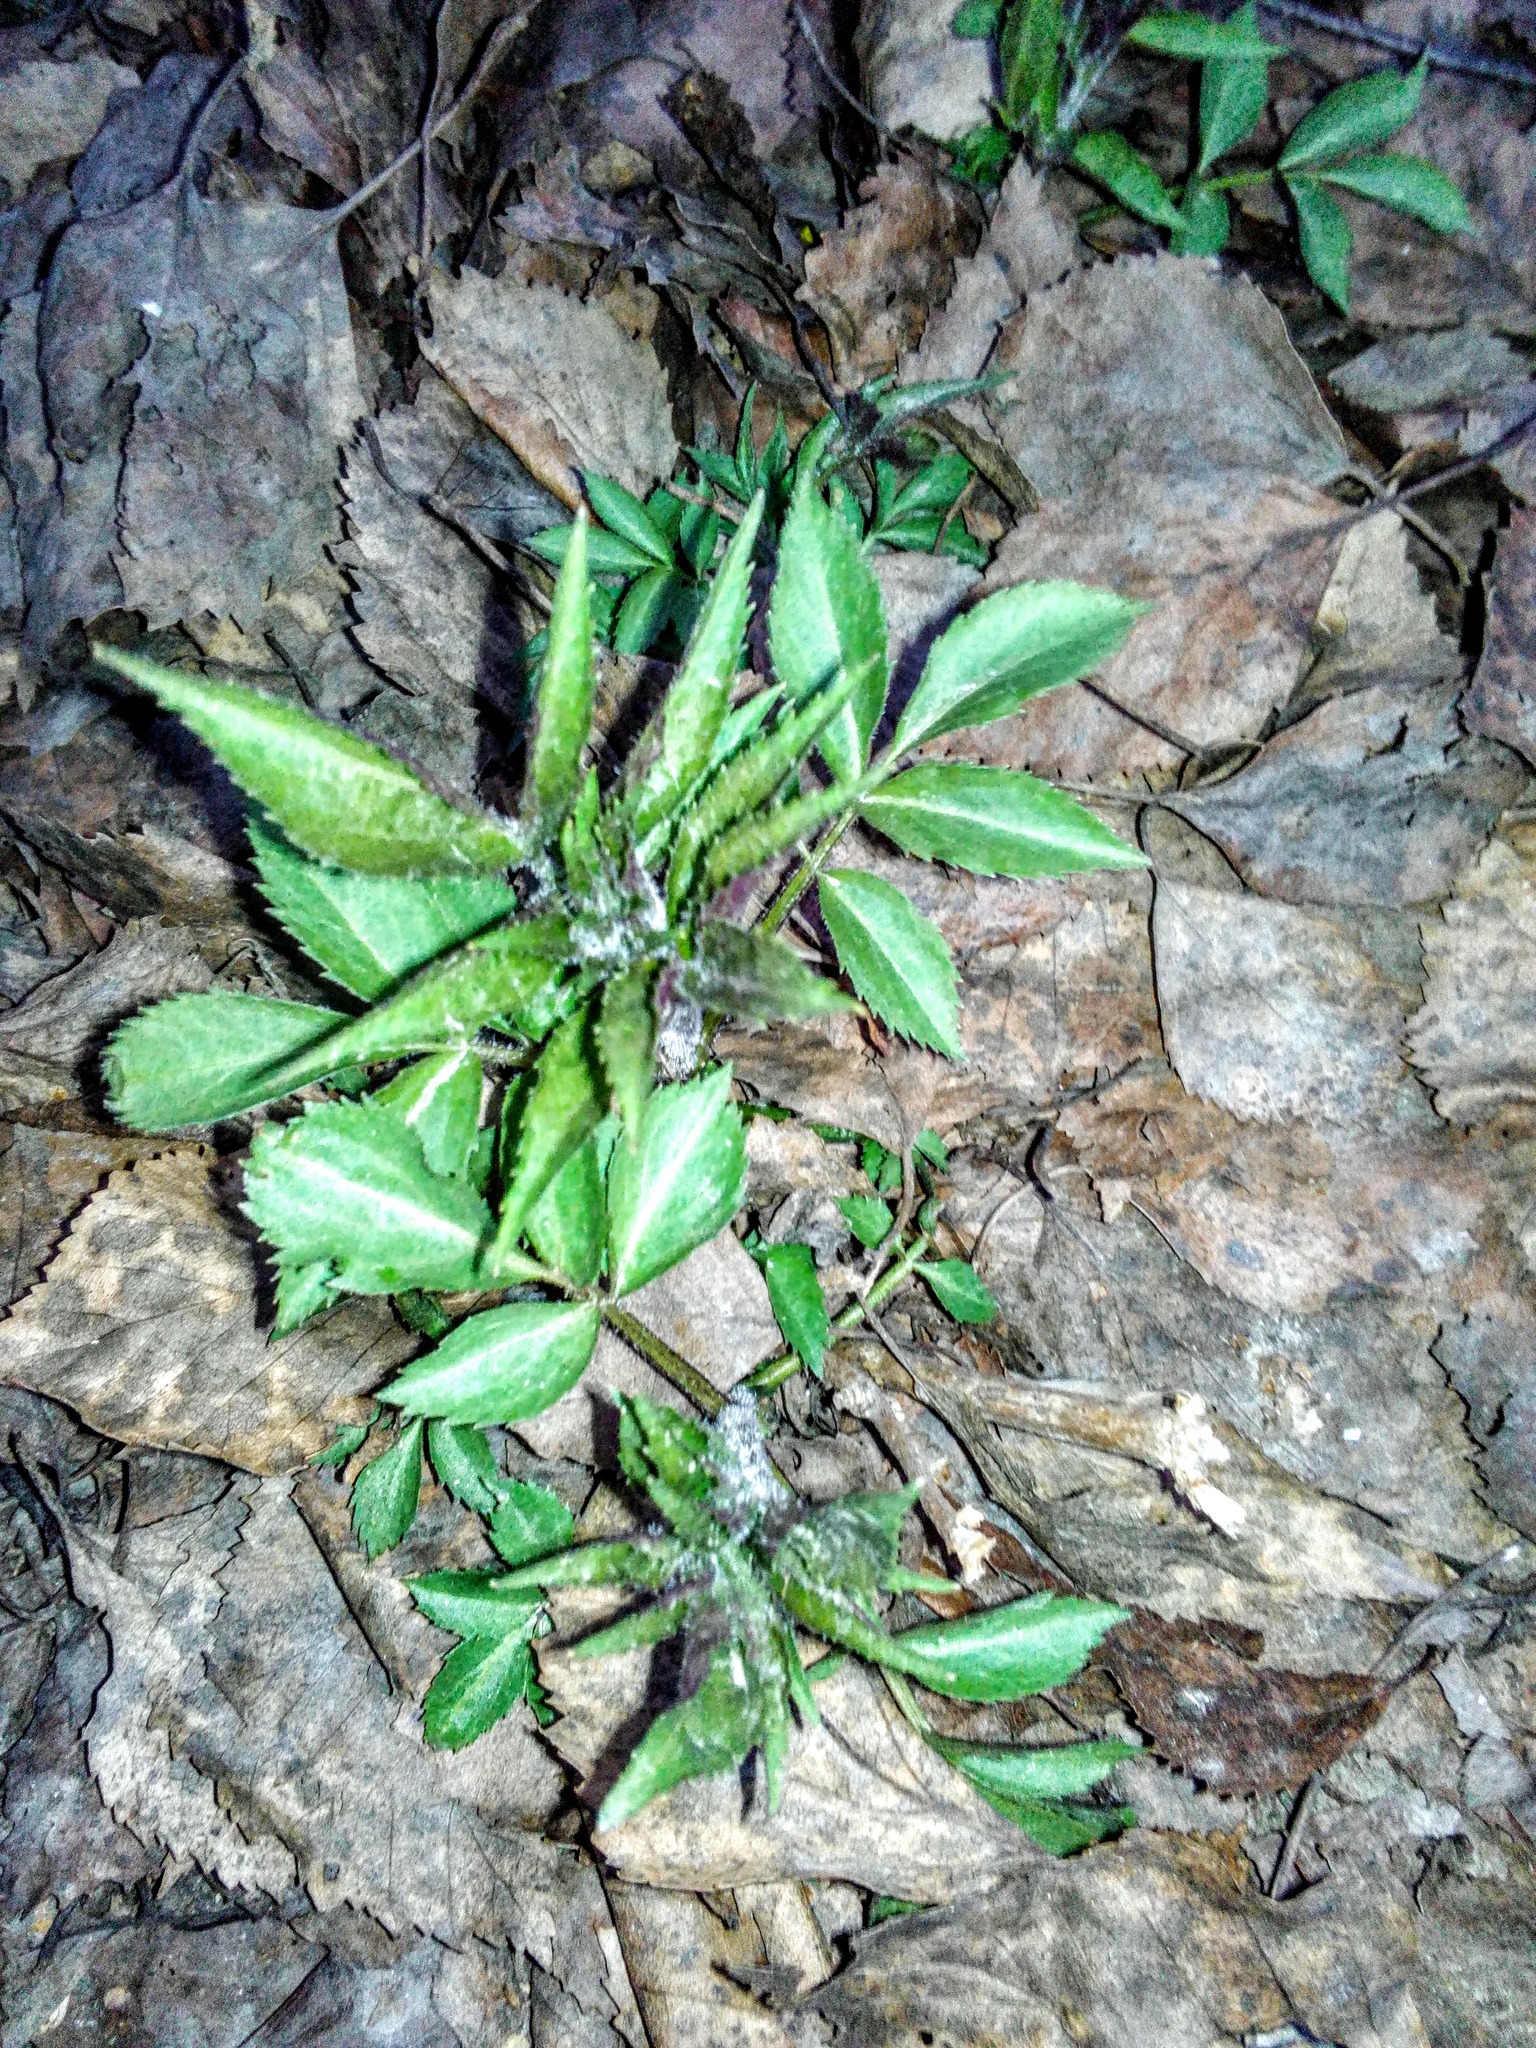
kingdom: Plantae
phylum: Tracheophyta
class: Magnoliopsida
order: Dipsacales
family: Viburnaceae
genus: Sambucus
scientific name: Sambucus sibirica
